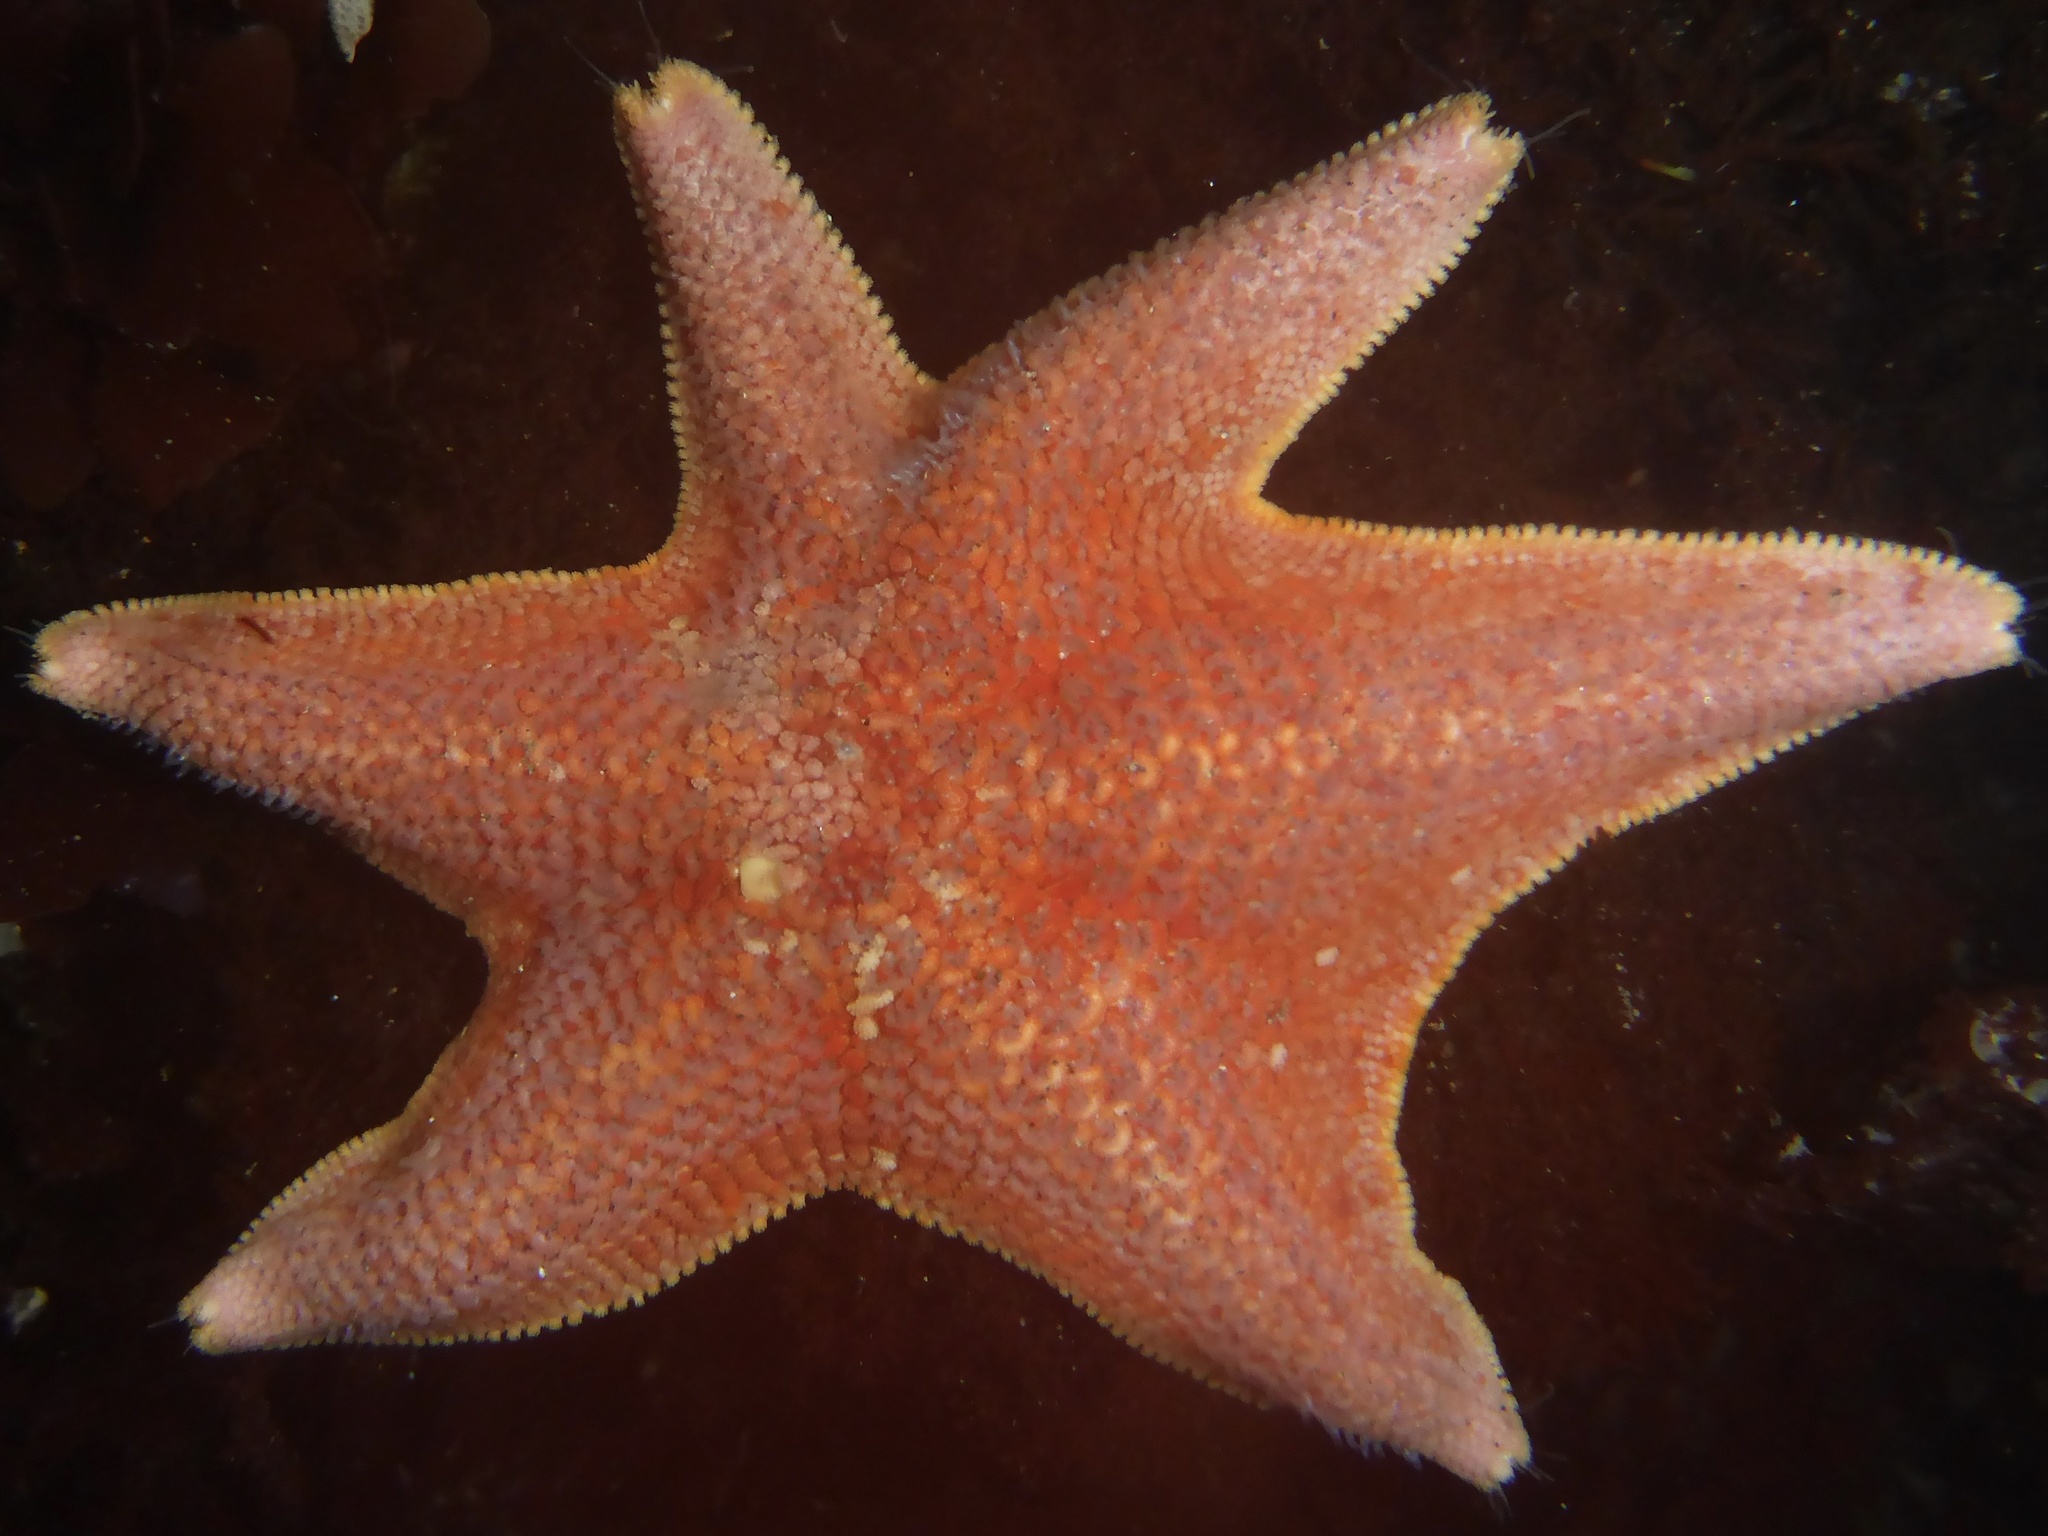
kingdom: Animalia
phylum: Echinodermata
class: Asteroidea
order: Valvatida
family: Asterinidae
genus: Patiria
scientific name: Patiria miniata
